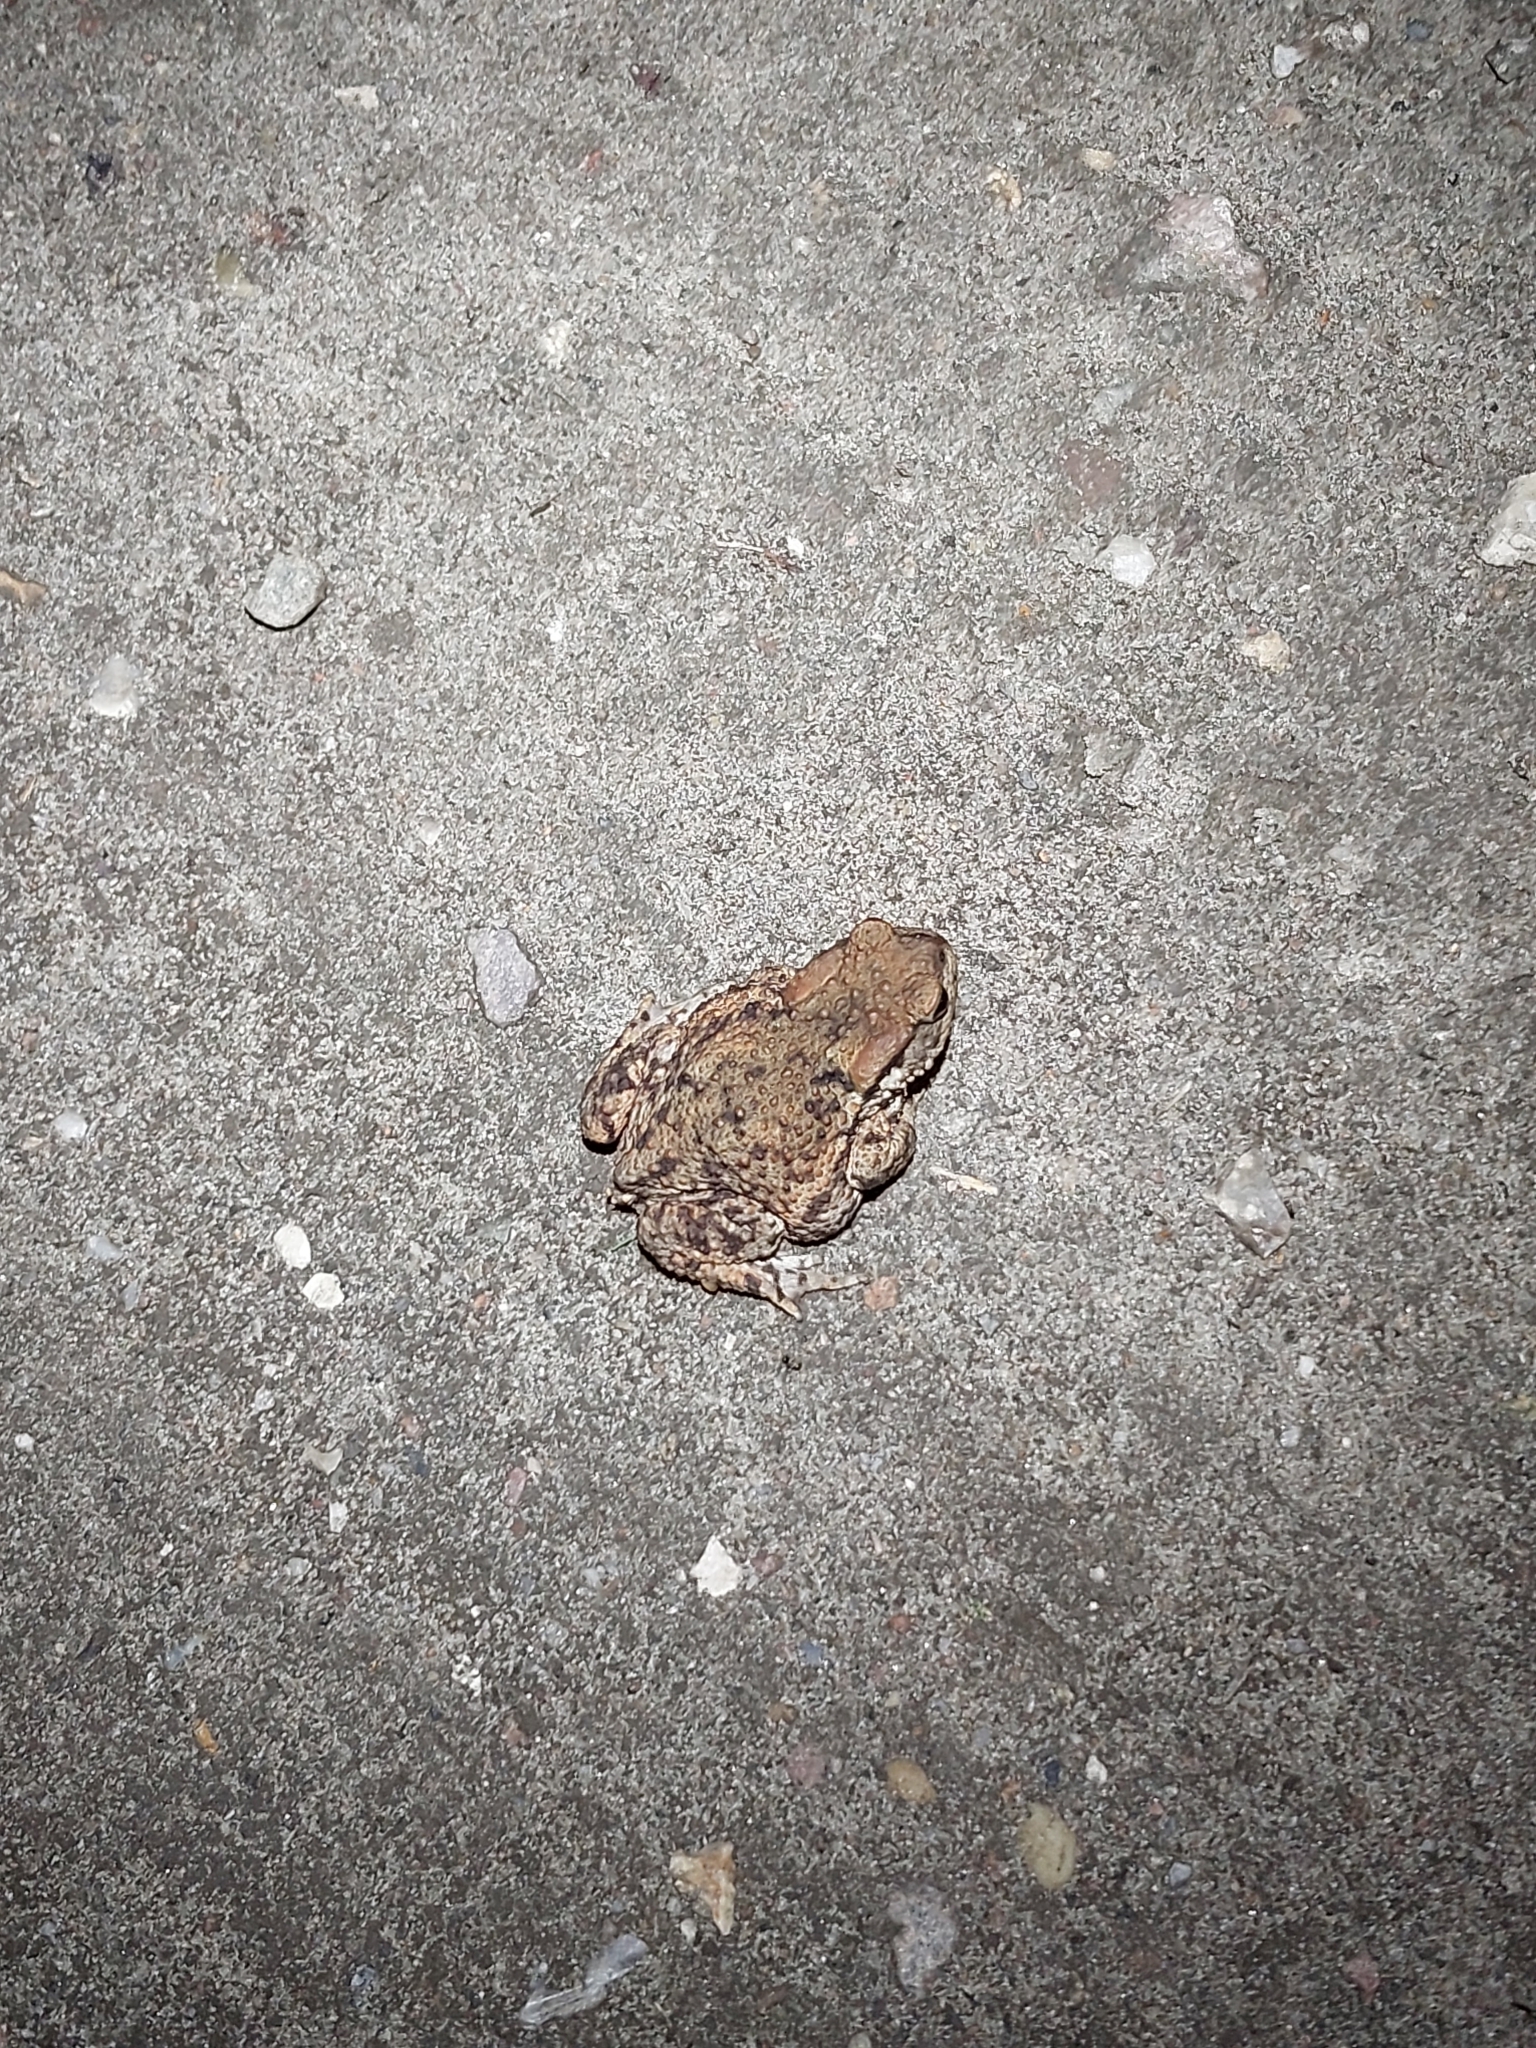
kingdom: Animalia
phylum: Chordata
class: Amphibia
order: Anura
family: Bufonidae
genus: Bufo
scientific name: Bufo bufo
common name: Common toad
